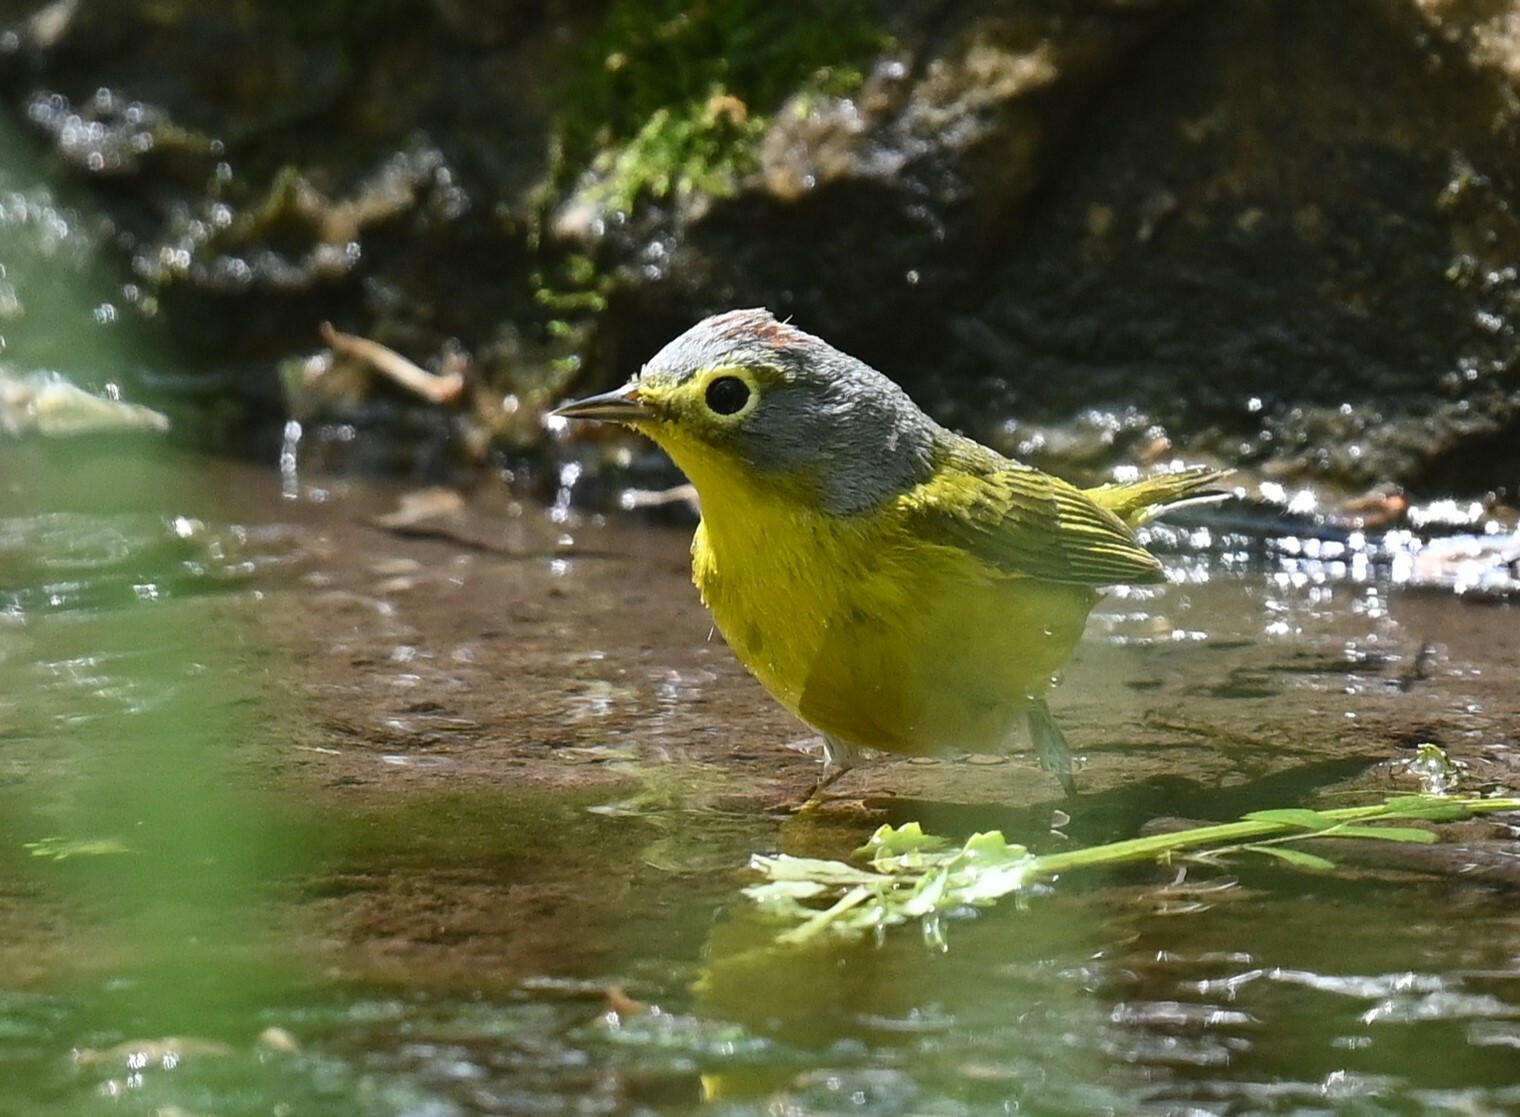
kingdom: Animalia
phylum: Chordata
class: Aves
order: Passeriformes
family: Parulidae
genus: Leiothlypis
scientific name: Leiothlypis ruficapilla
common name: Nashville warbler
